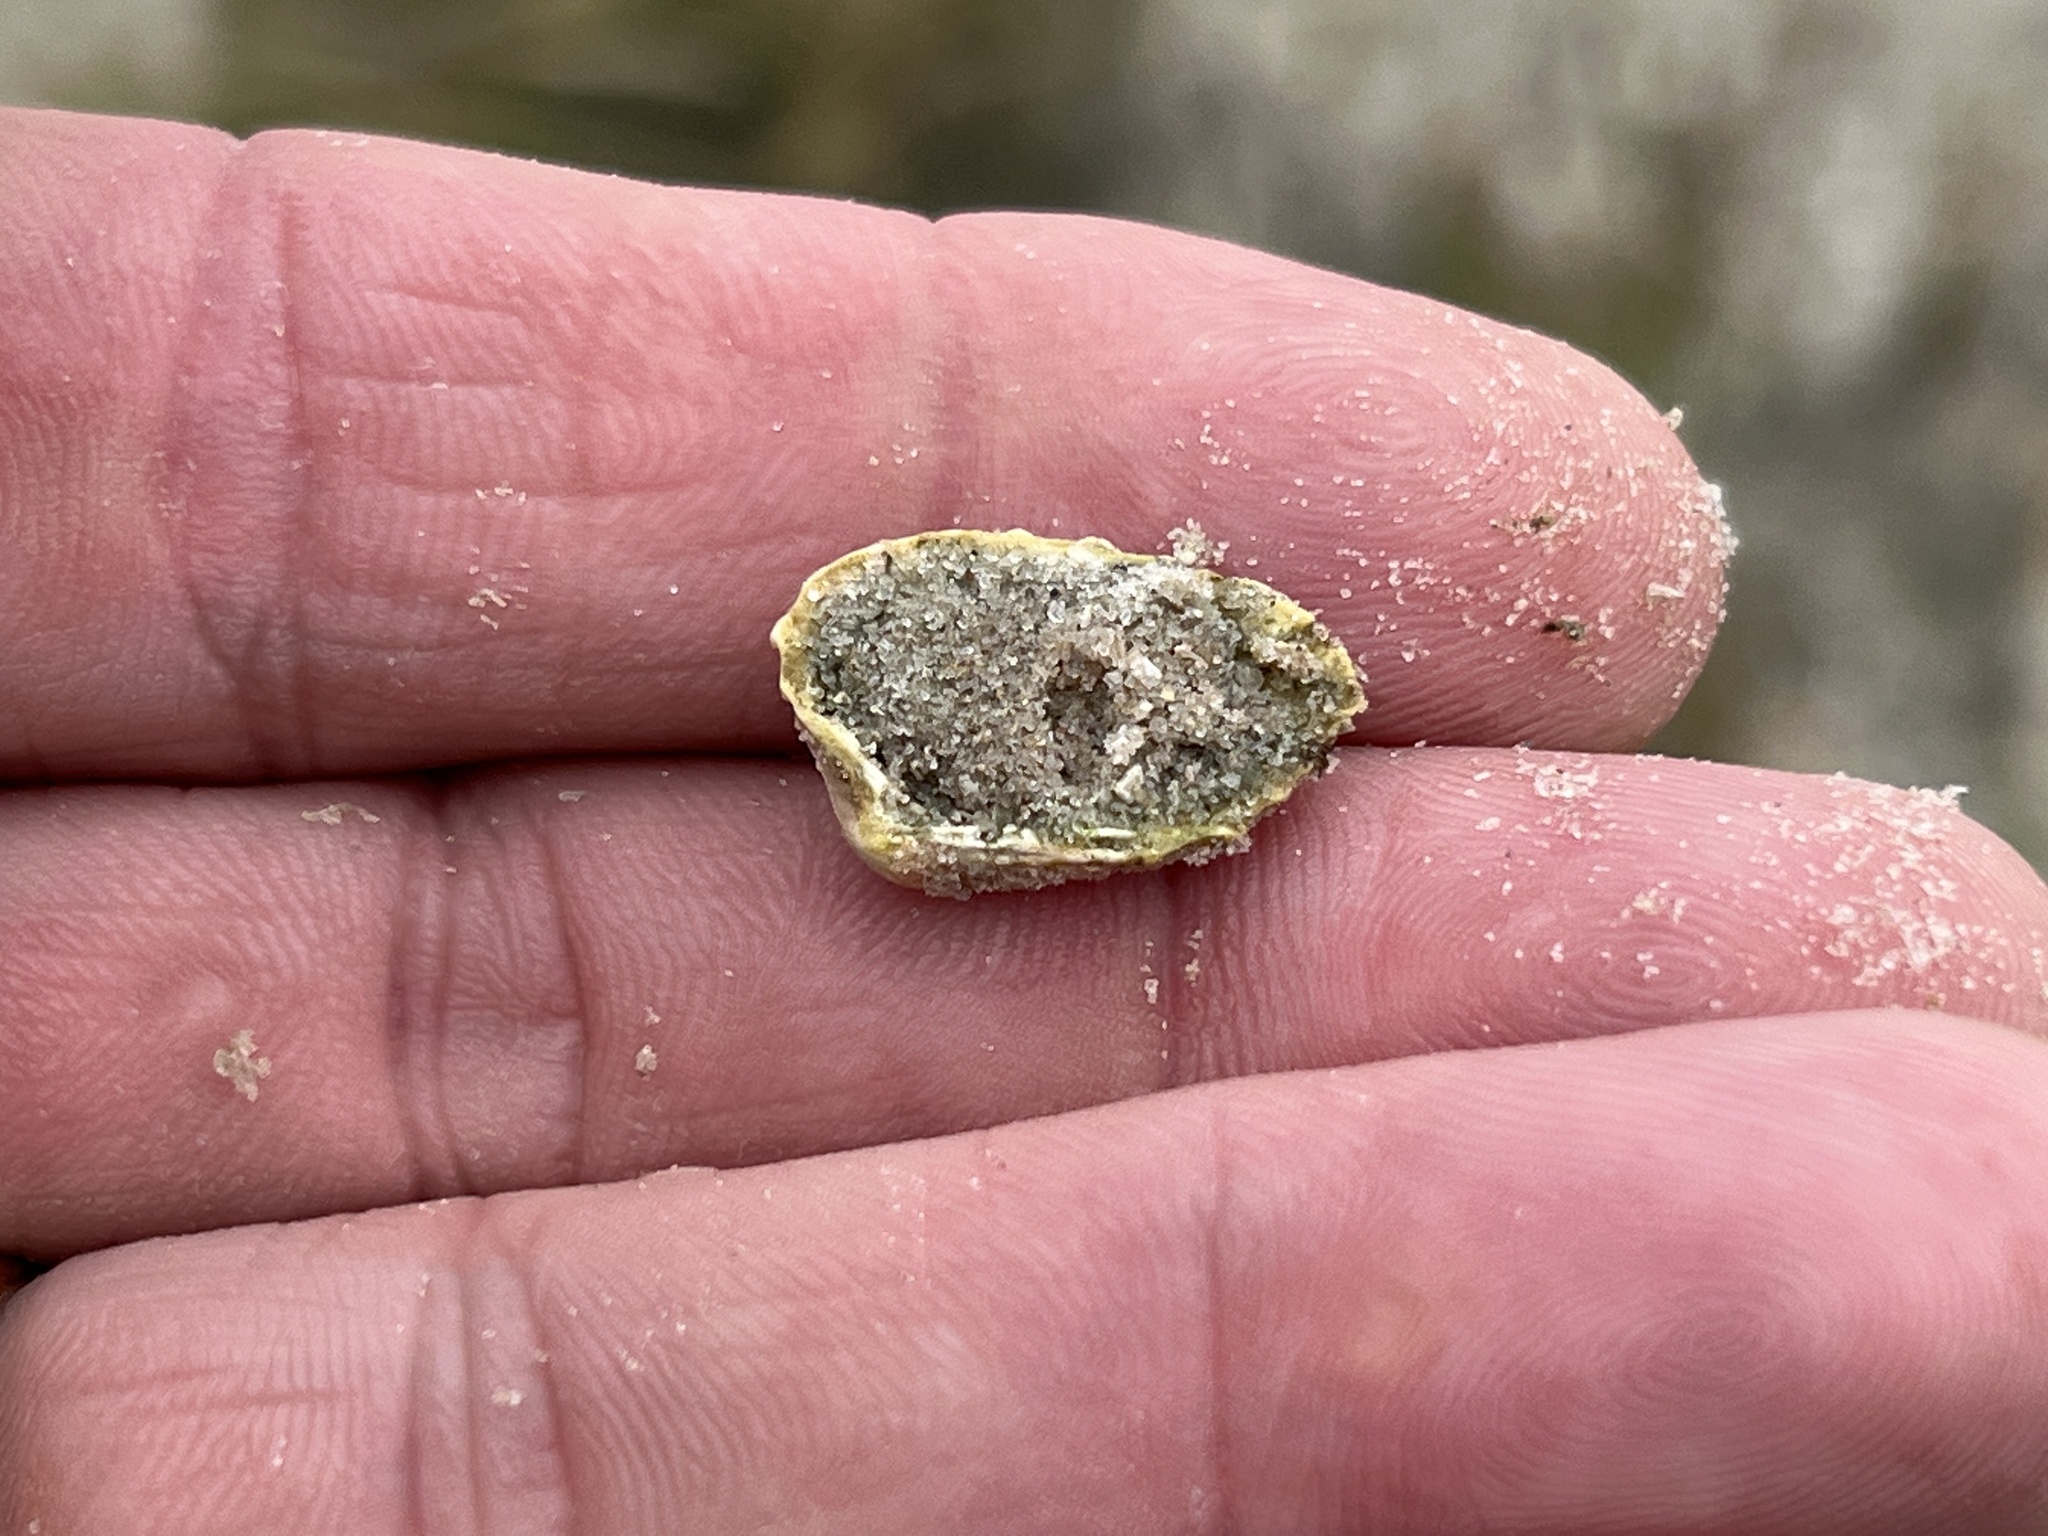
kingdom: Animalia
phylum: Mollusca
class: Bivalvia
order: Carditida
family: Carditidae
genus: Cardites
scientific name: Cardites floridanus
